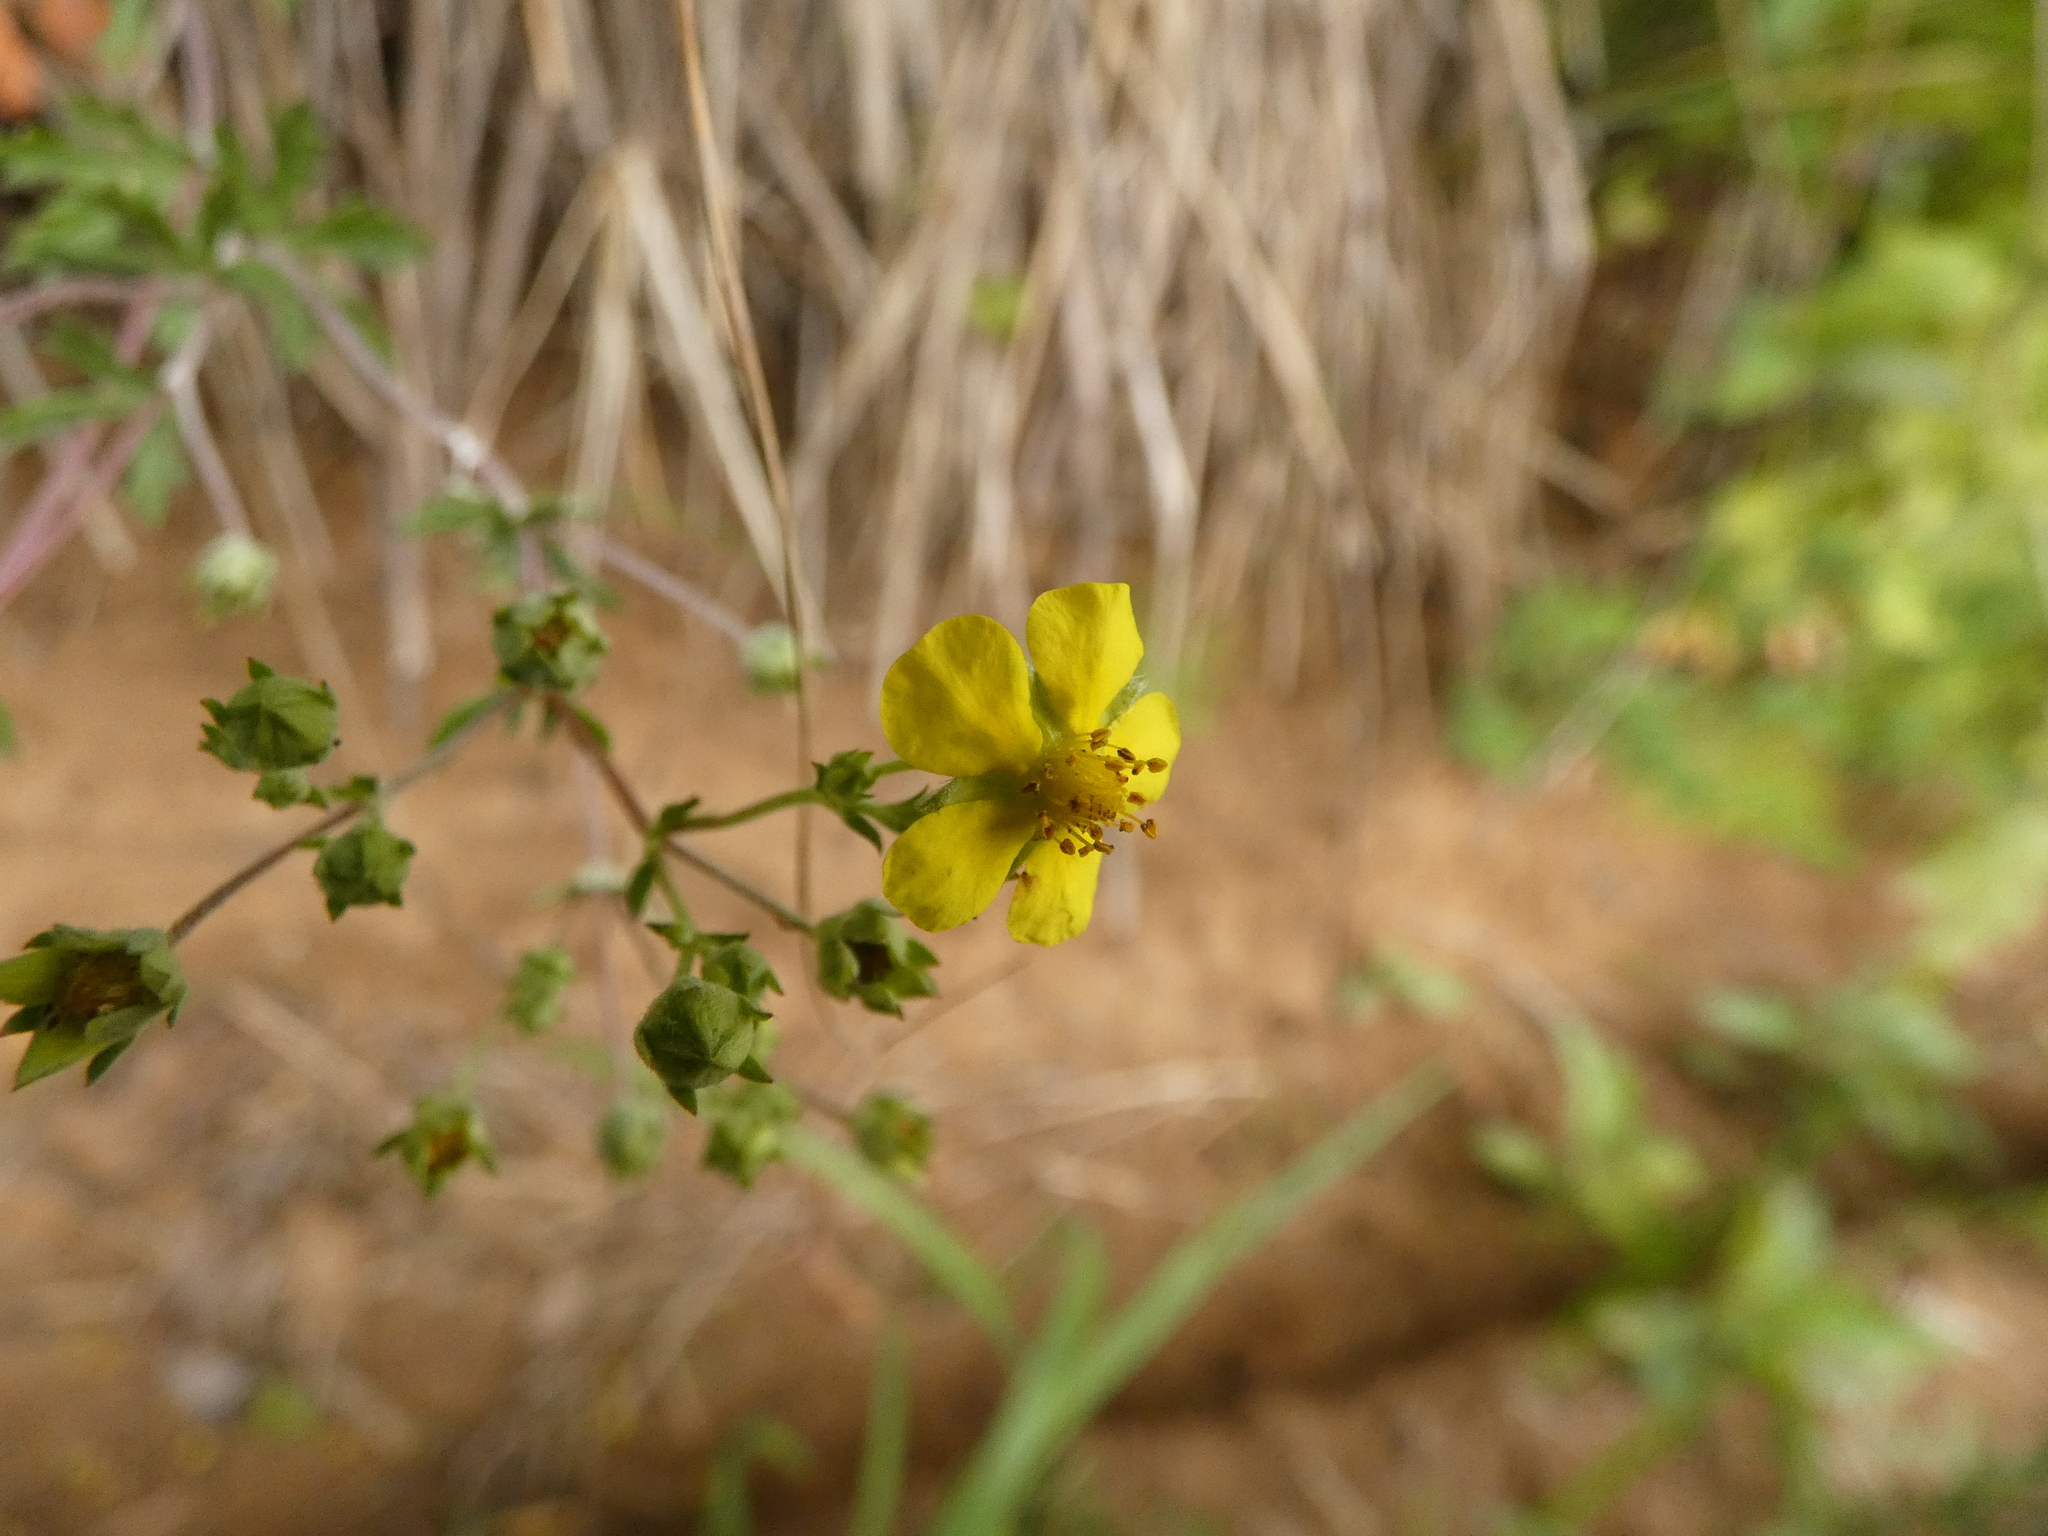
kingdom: Plantae
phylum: Tracheophyta
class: Magnoliopsida
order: Rosales
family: Rosaceae
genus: Potentilla
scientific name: Potentilla argentea
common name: Hoary cinquefoil
